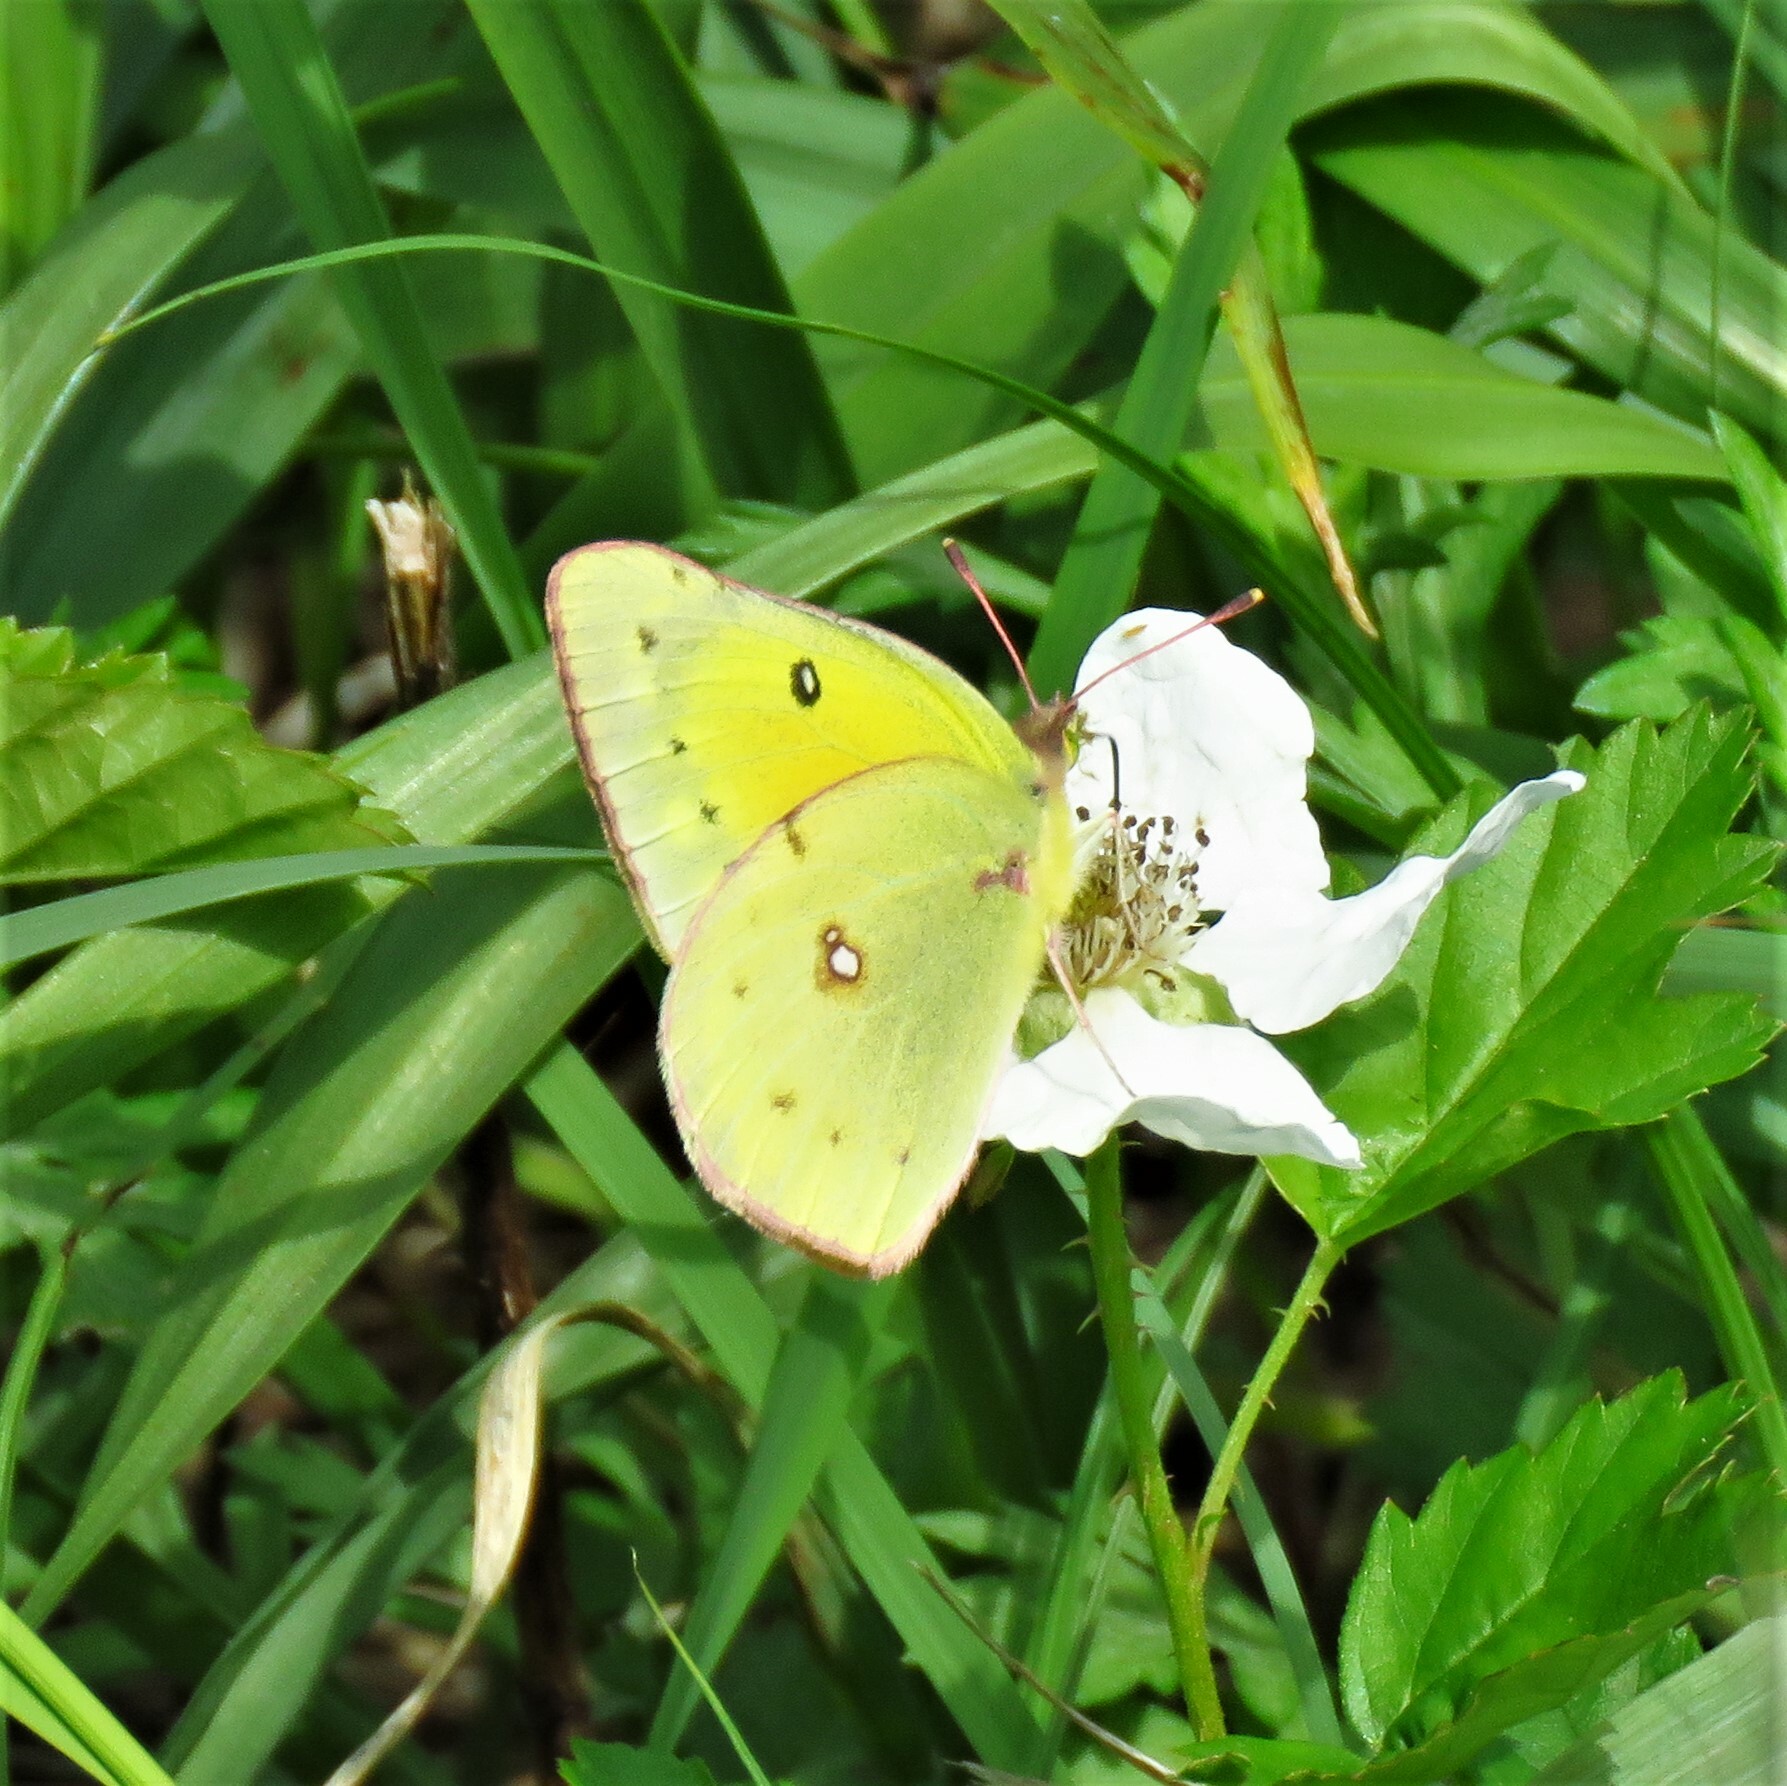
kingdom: Animalia
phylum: Arthropoda
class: Insecta
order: Lepidoptera
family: Pieridae
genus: Colias
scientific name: Colias eurytheme
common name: Alfalfa butterfly
